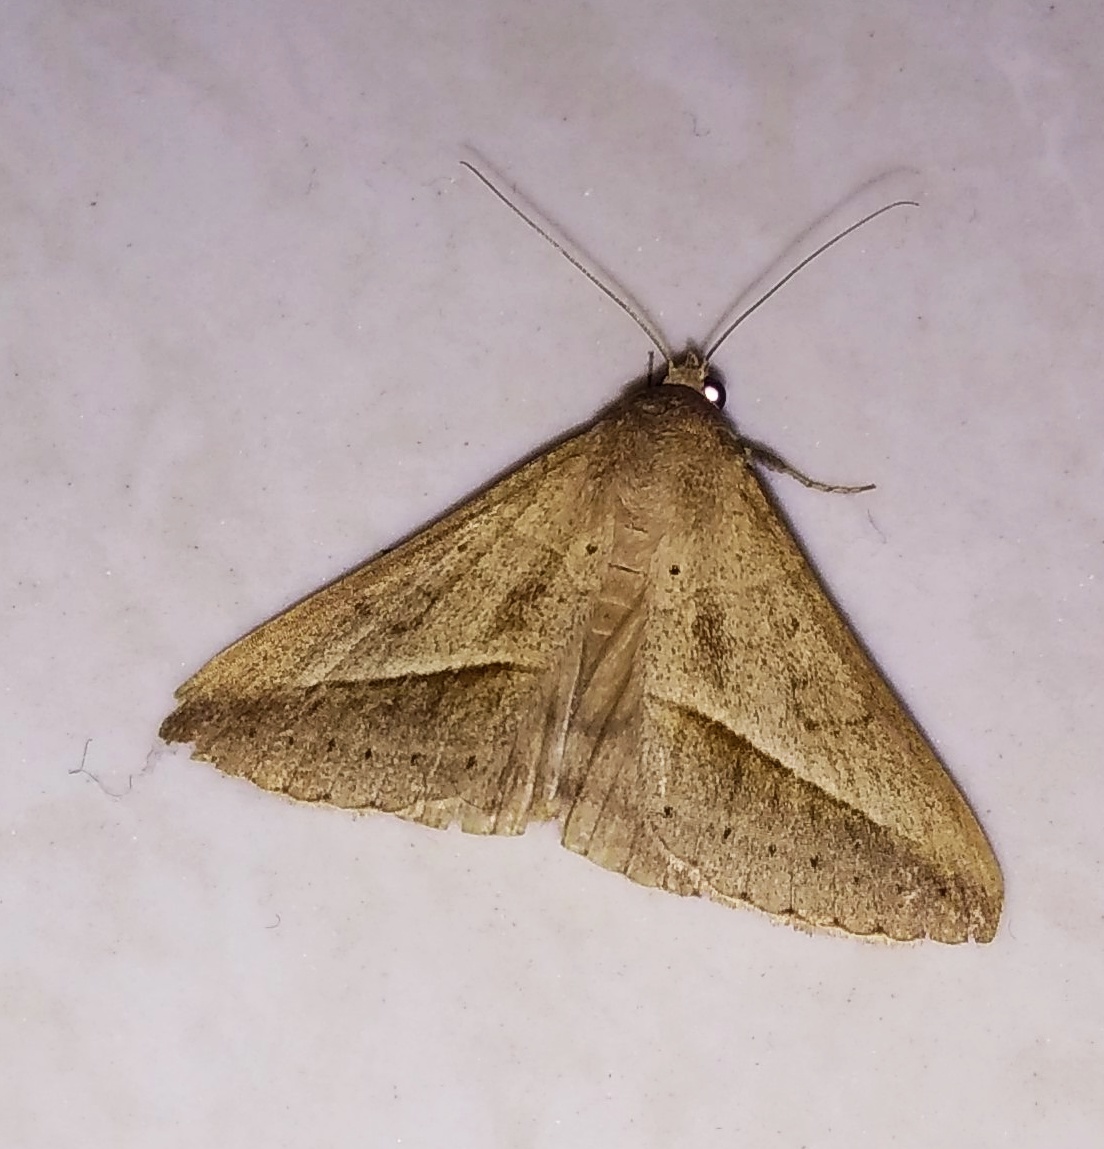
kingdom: Animalia
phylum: Arthropoda
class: Insecta
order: Lepidoptera
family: Erebidae
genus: Mocis
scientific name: Mocis frugalis
